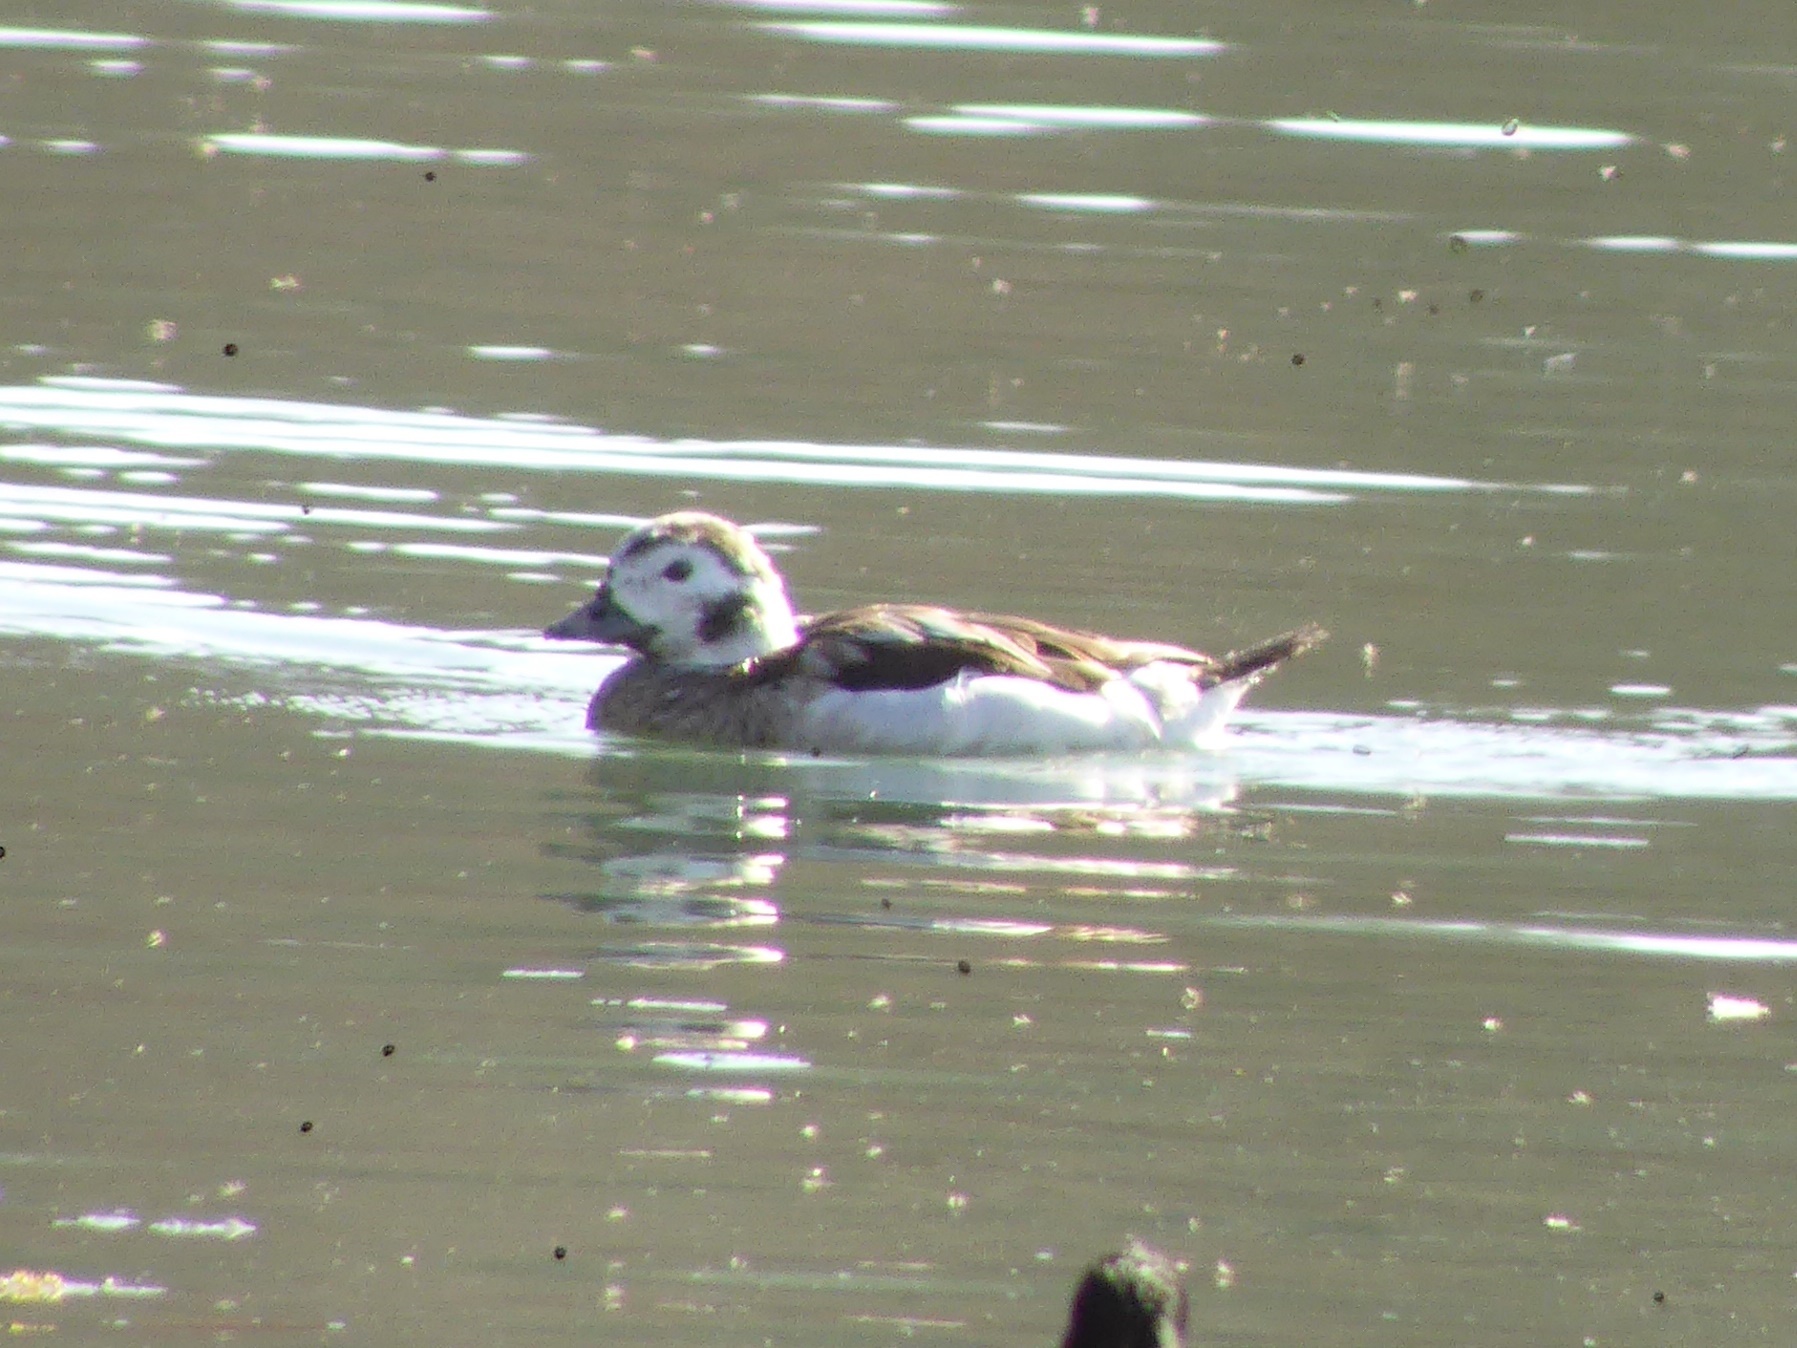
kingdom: Animalia
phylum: Chordata
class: Aves
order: Anseriformes
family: Anatidae
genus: Clangula
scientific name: Clangula hyemalis
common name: Long-tailed duck
